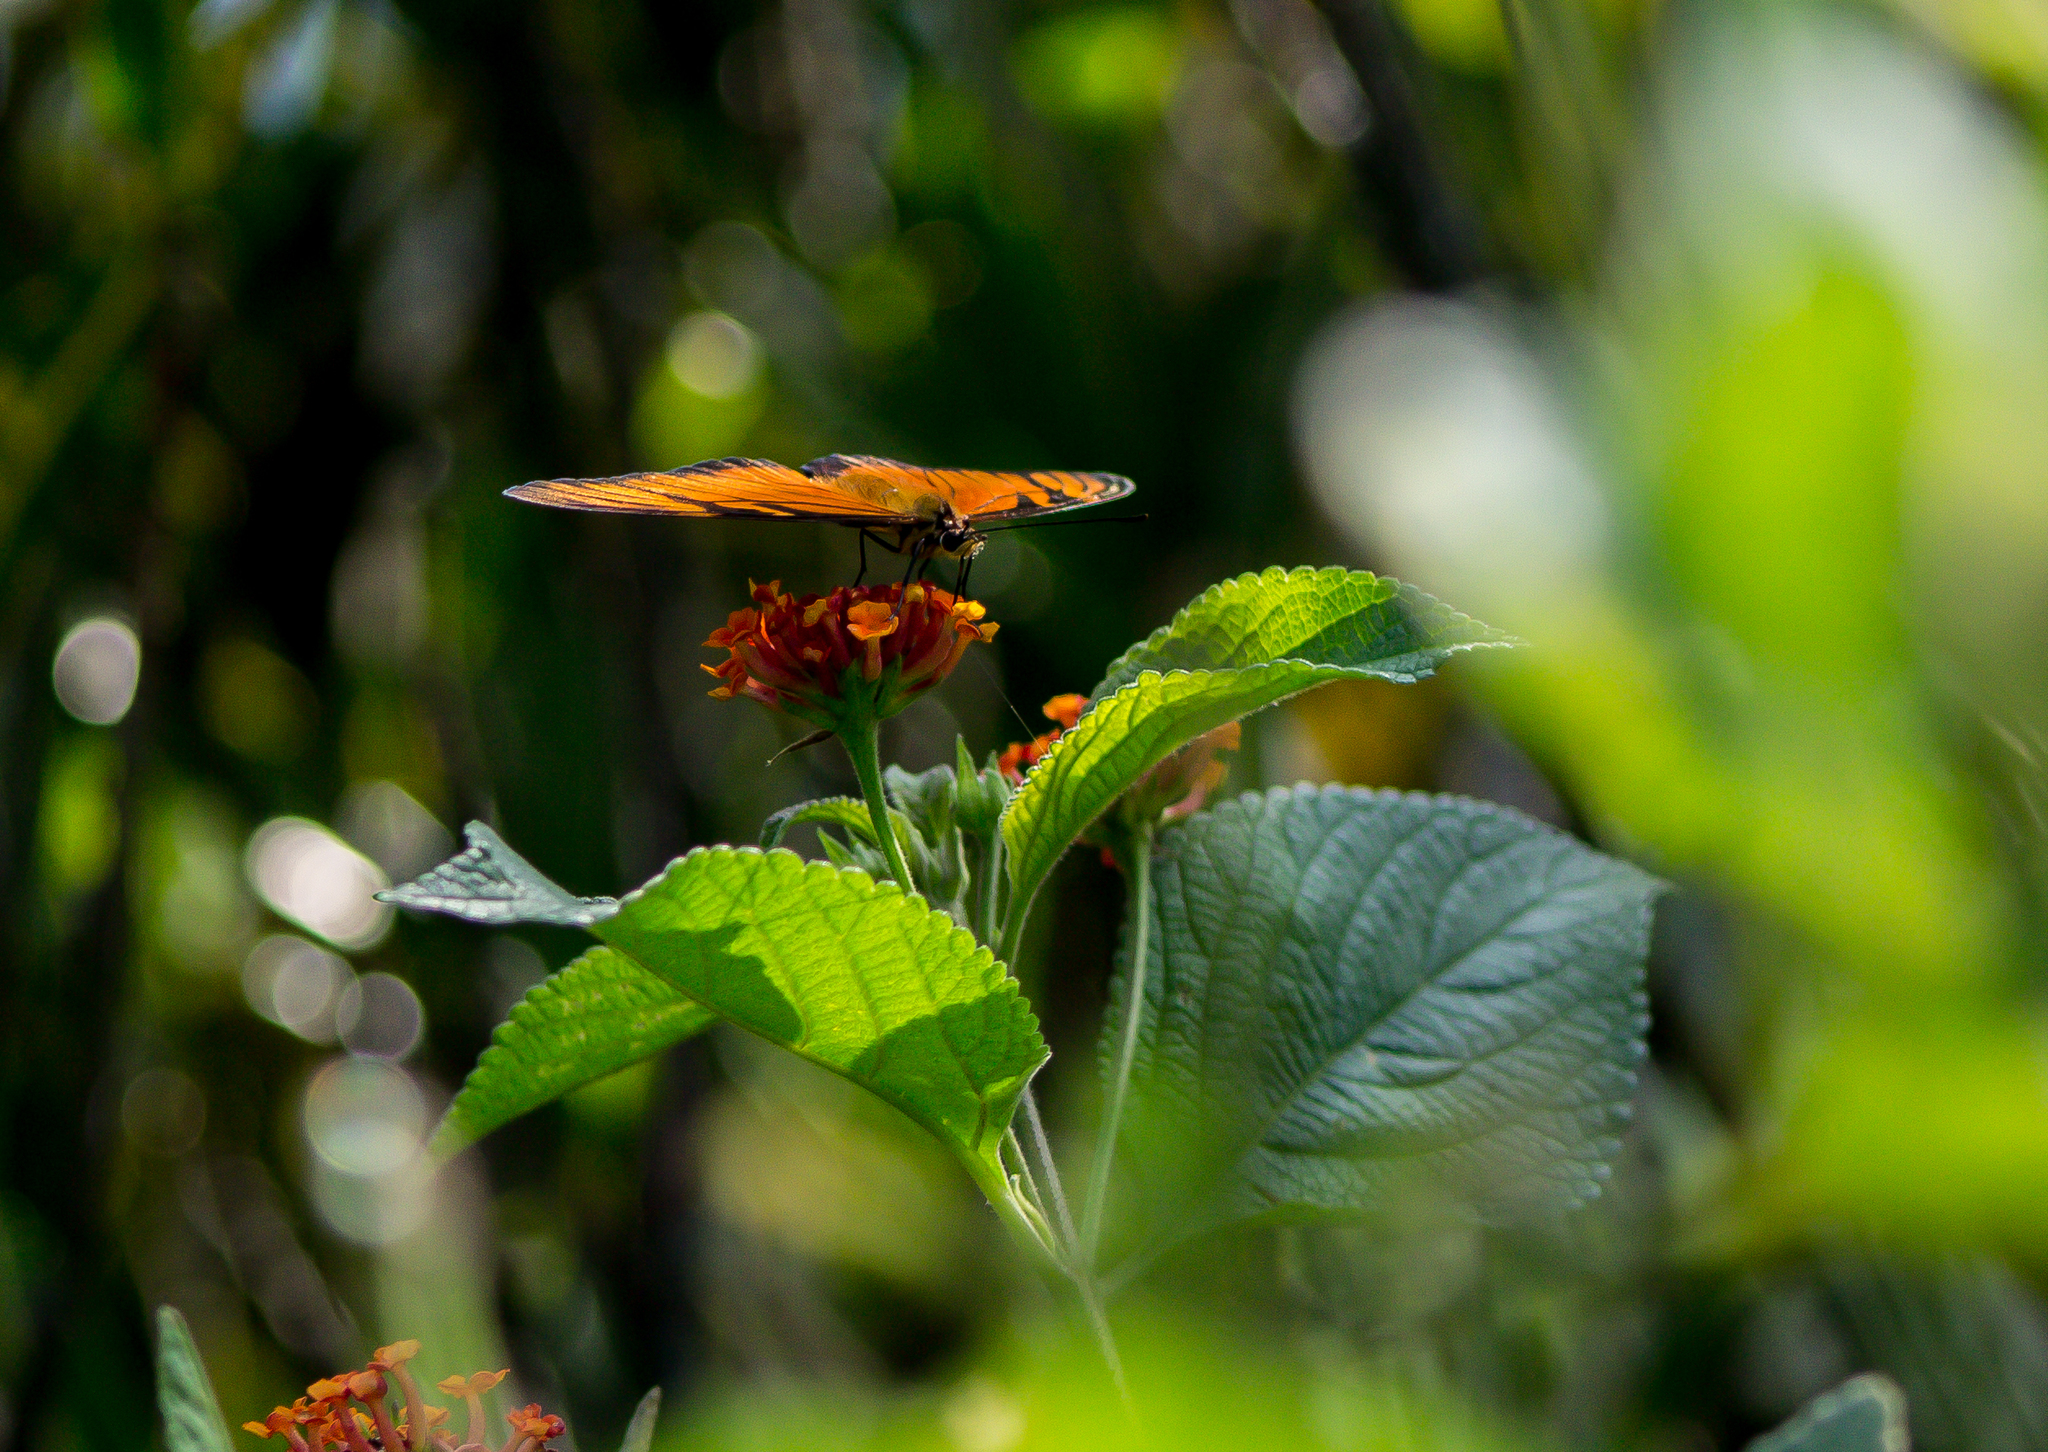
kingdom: Animalia
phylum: Arthropoda
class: Insecta
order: Lepidoptera
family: Nymphalidae
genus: Dione
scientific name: Dione juno
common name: Juno silverspot
